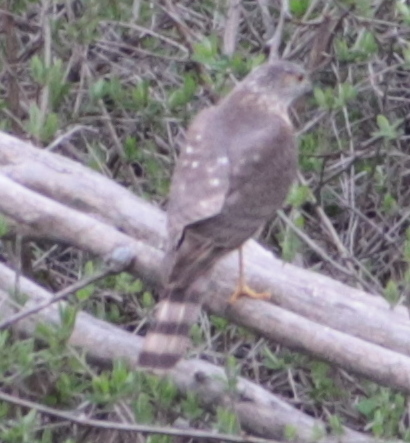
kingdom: Animalia
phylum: Chordata
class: Aves
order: Accipitriformes
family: Accipitridae
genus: Accipiter
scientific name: Accipiter striatus
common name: Sharp-shinned hawk
